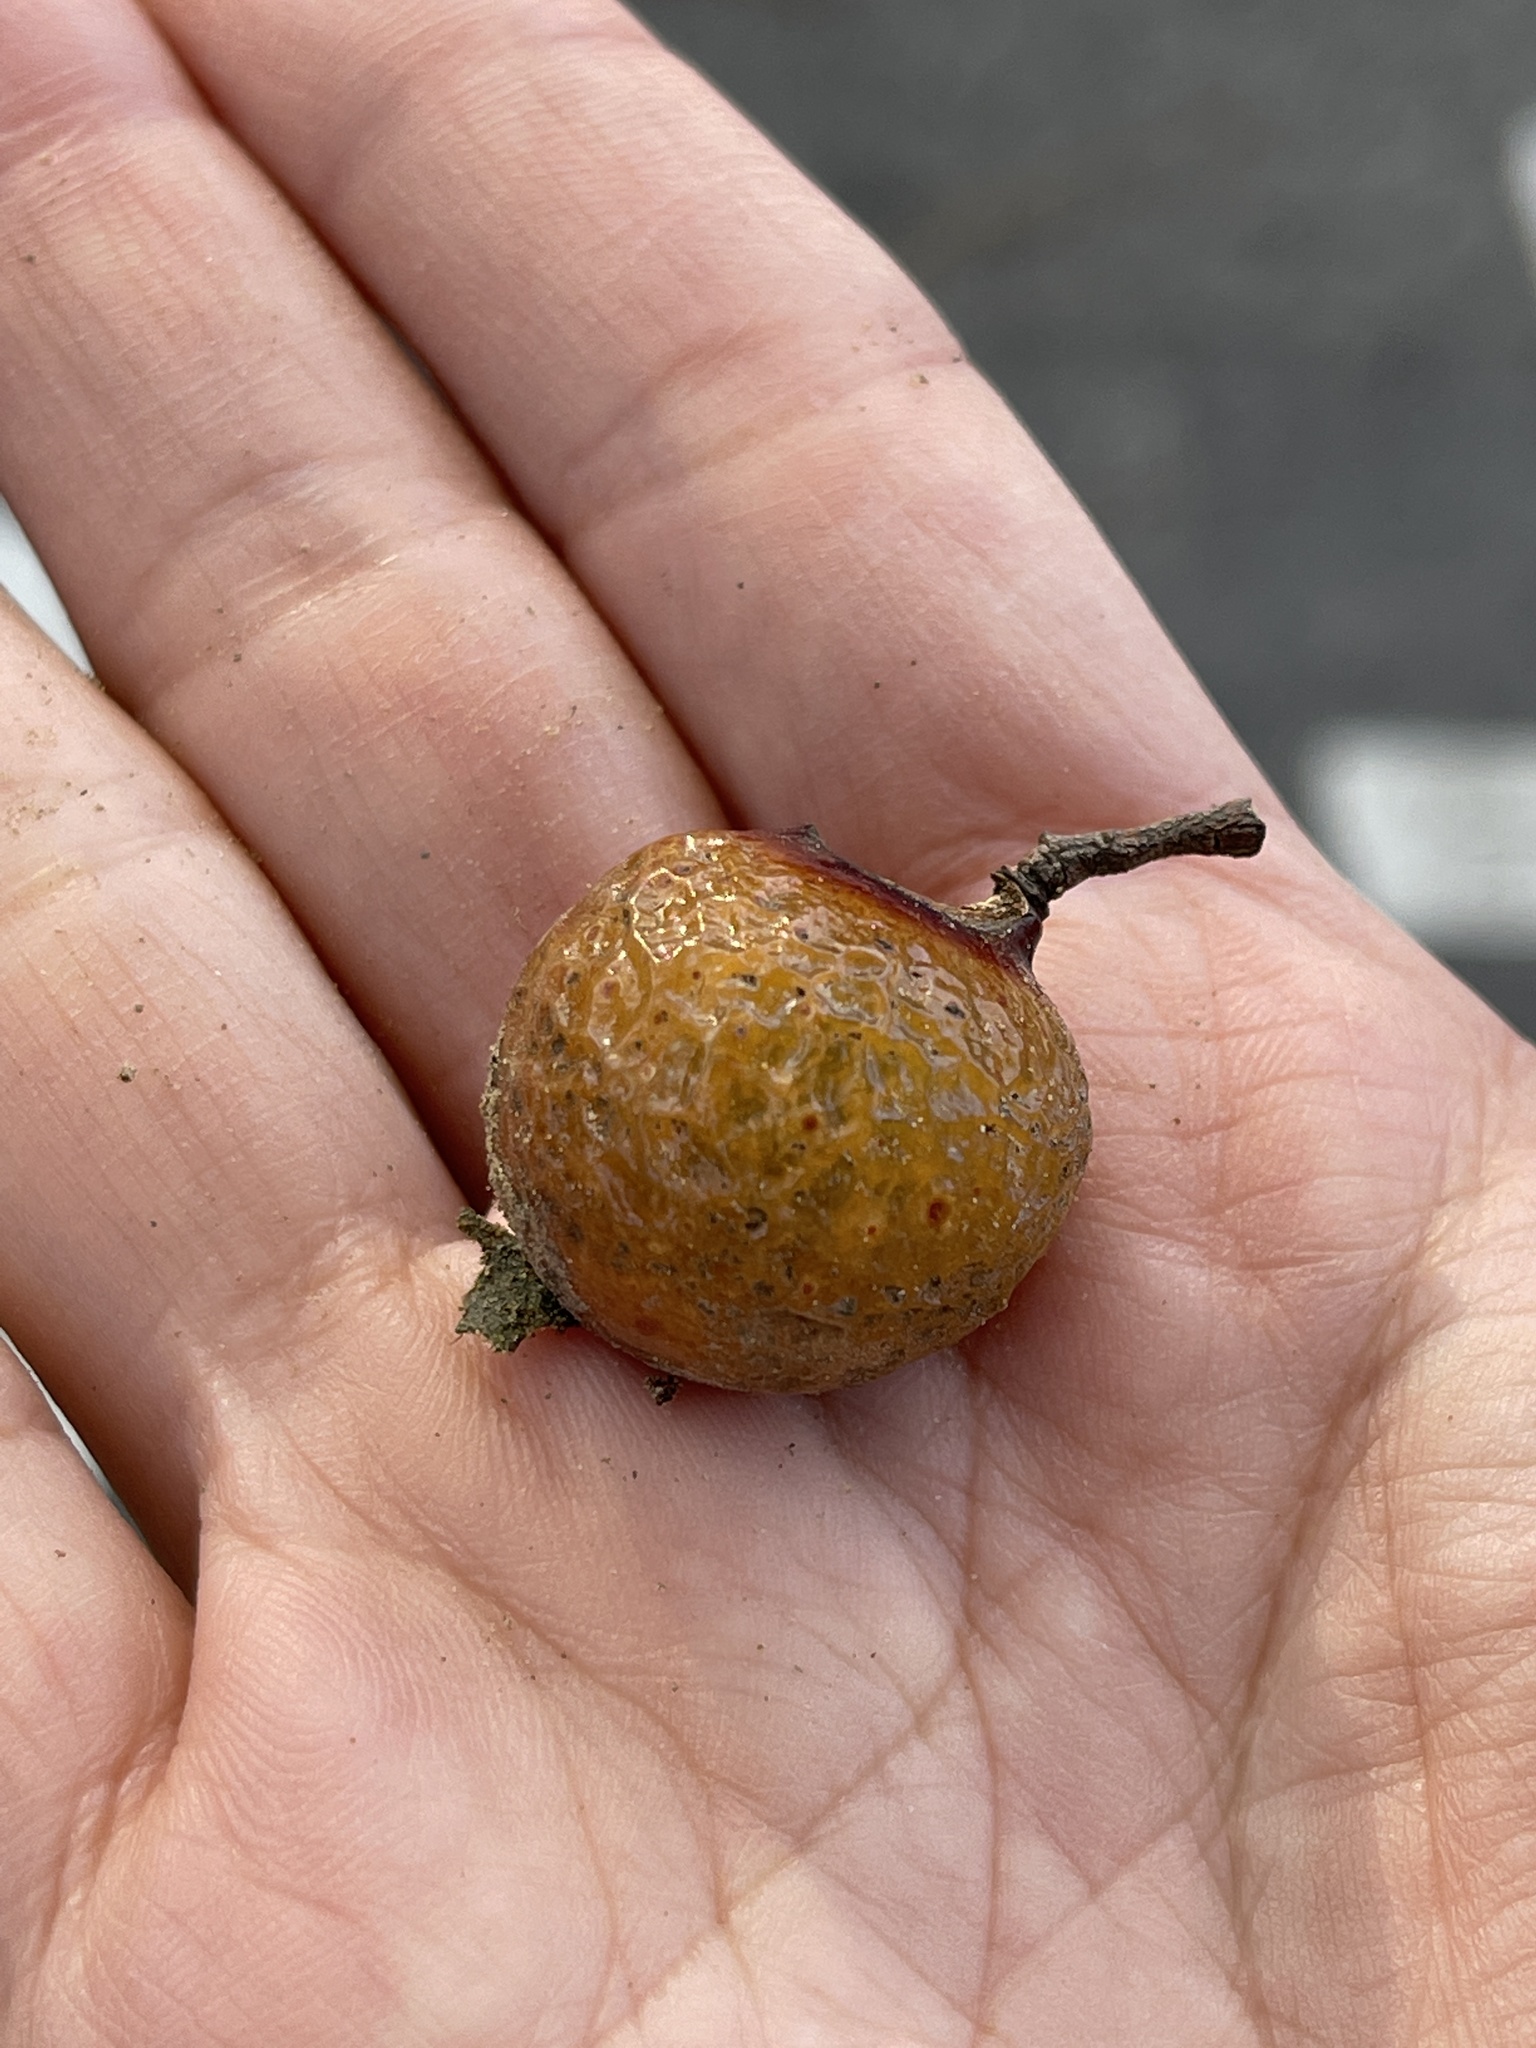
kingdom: Plantae
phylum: Tracheophyta
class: Magnoliopsida
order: Sapindales
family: Sapindaceae
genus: Sapindus
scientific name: Sapindus mukorossi
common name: Chinese soapberry
